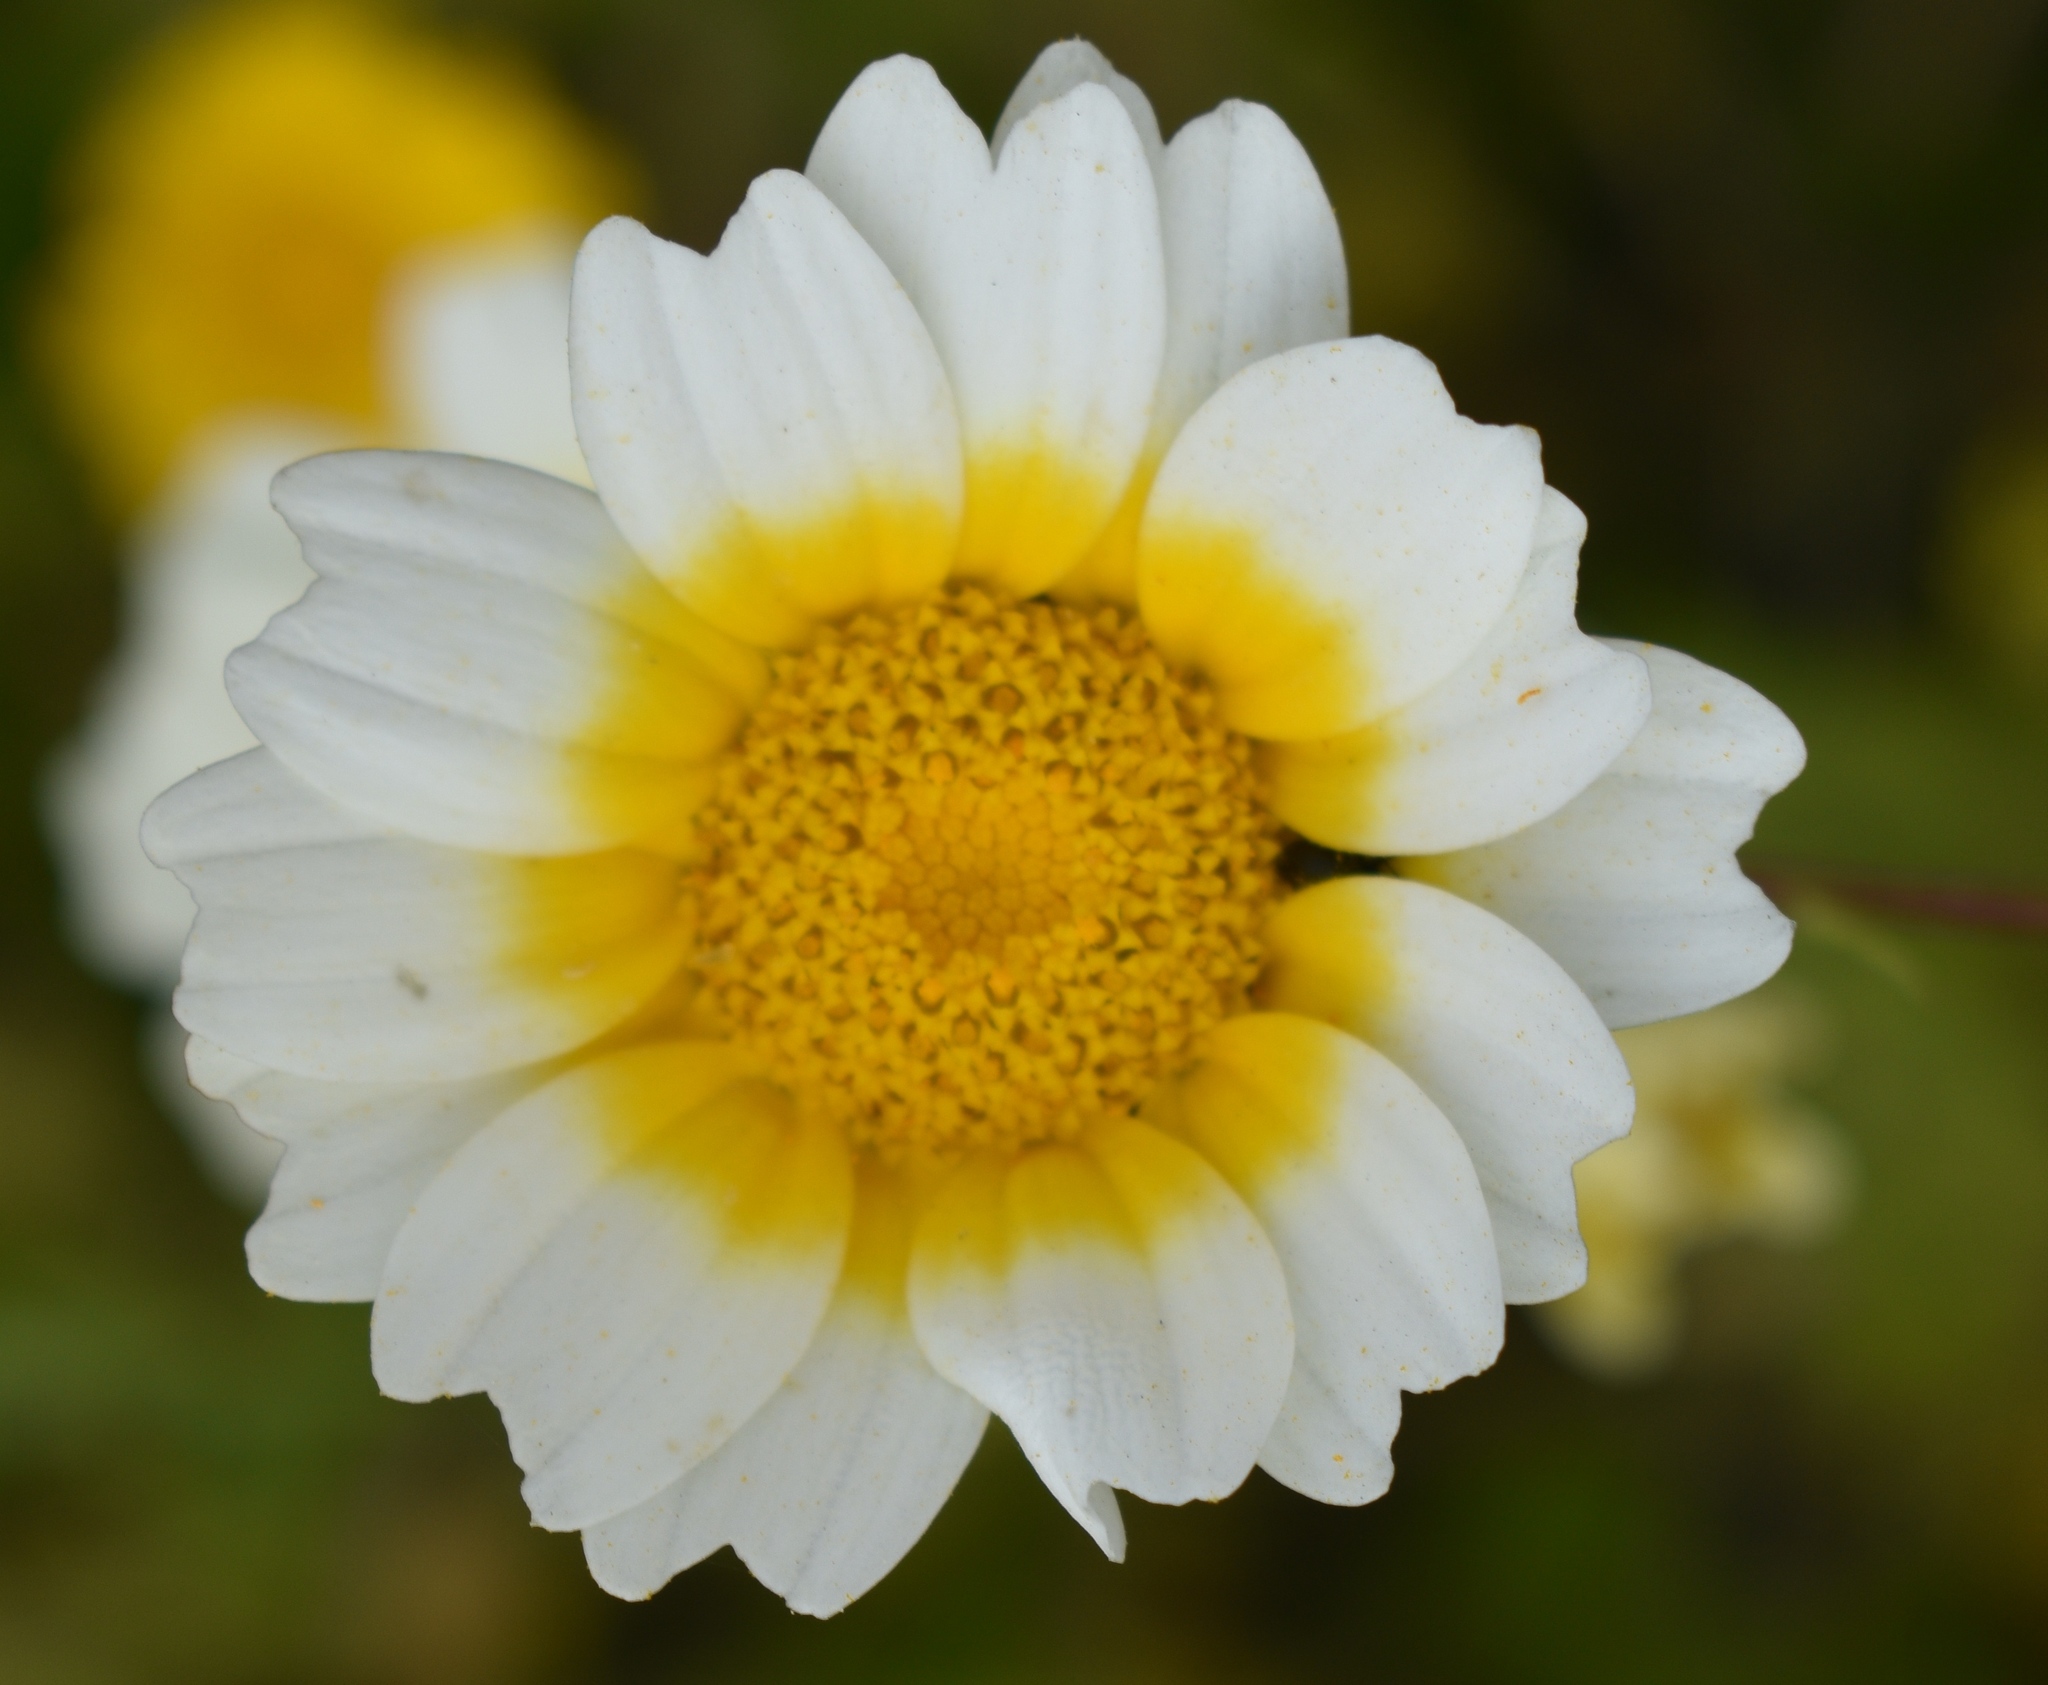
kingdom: Plantae
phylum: Tracheophyta
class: Magnoliopsida
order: Asterales
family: Asteraceae
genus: Glebionis
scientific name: Glebionis coronaria
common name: Crowndaisy
